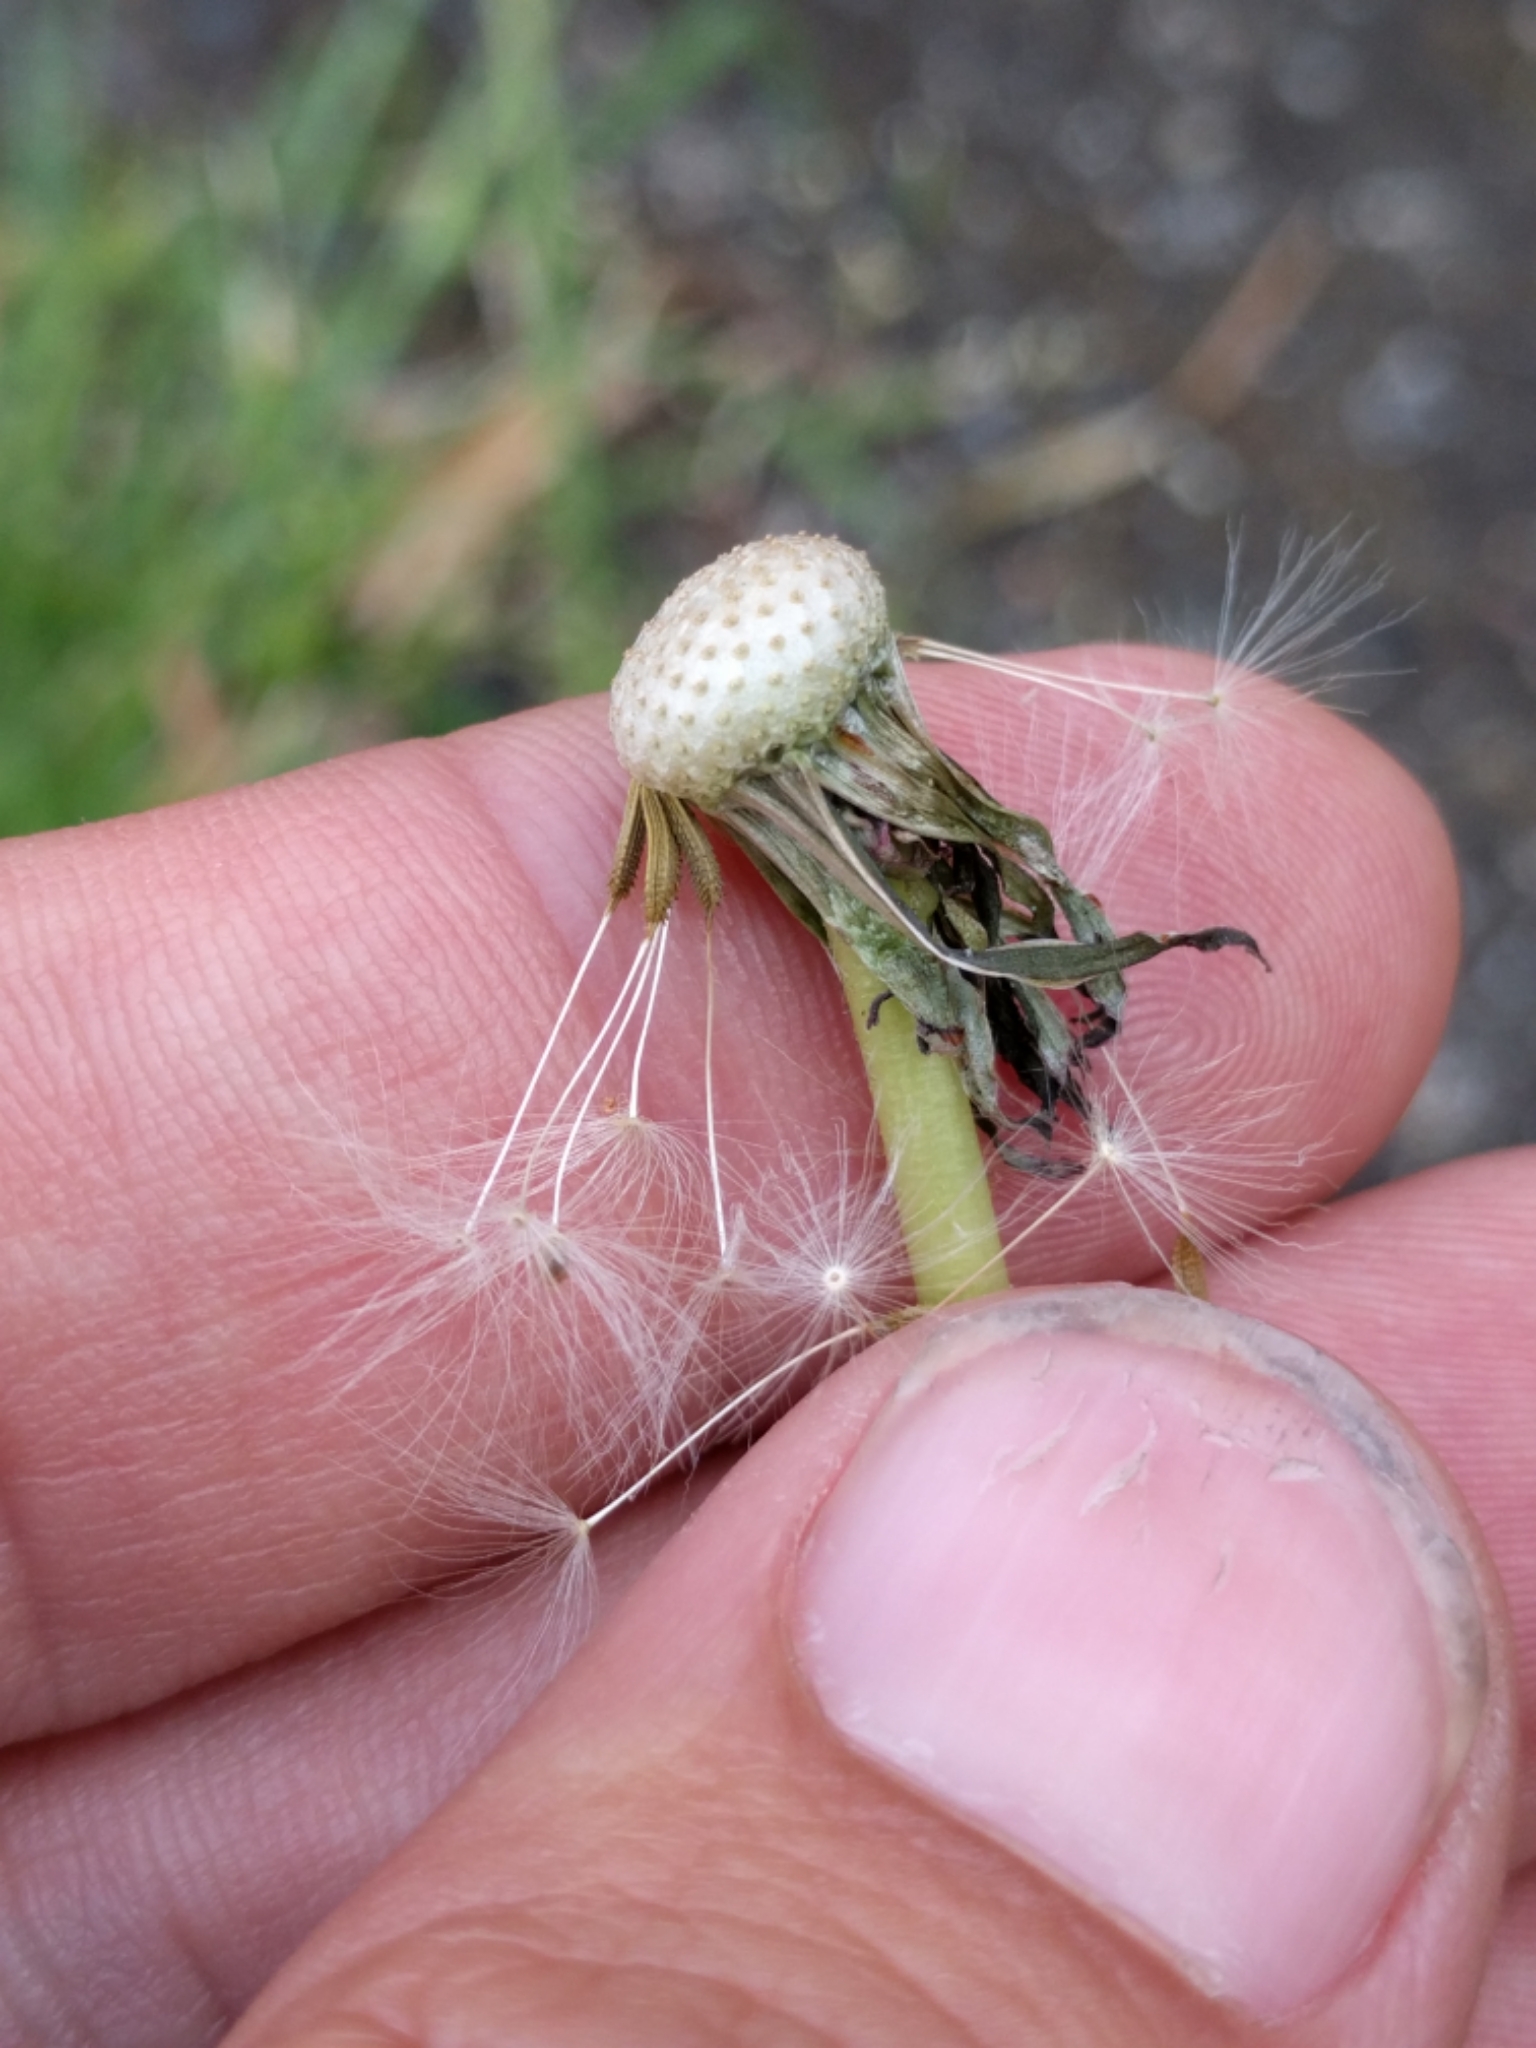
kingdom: Plantae
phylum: Tracheophyta
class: Magnoliopsida
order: Asterales
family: Asteraceae
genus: Taraxacum
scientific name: Taraxacum officinale
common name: Common dandelion
